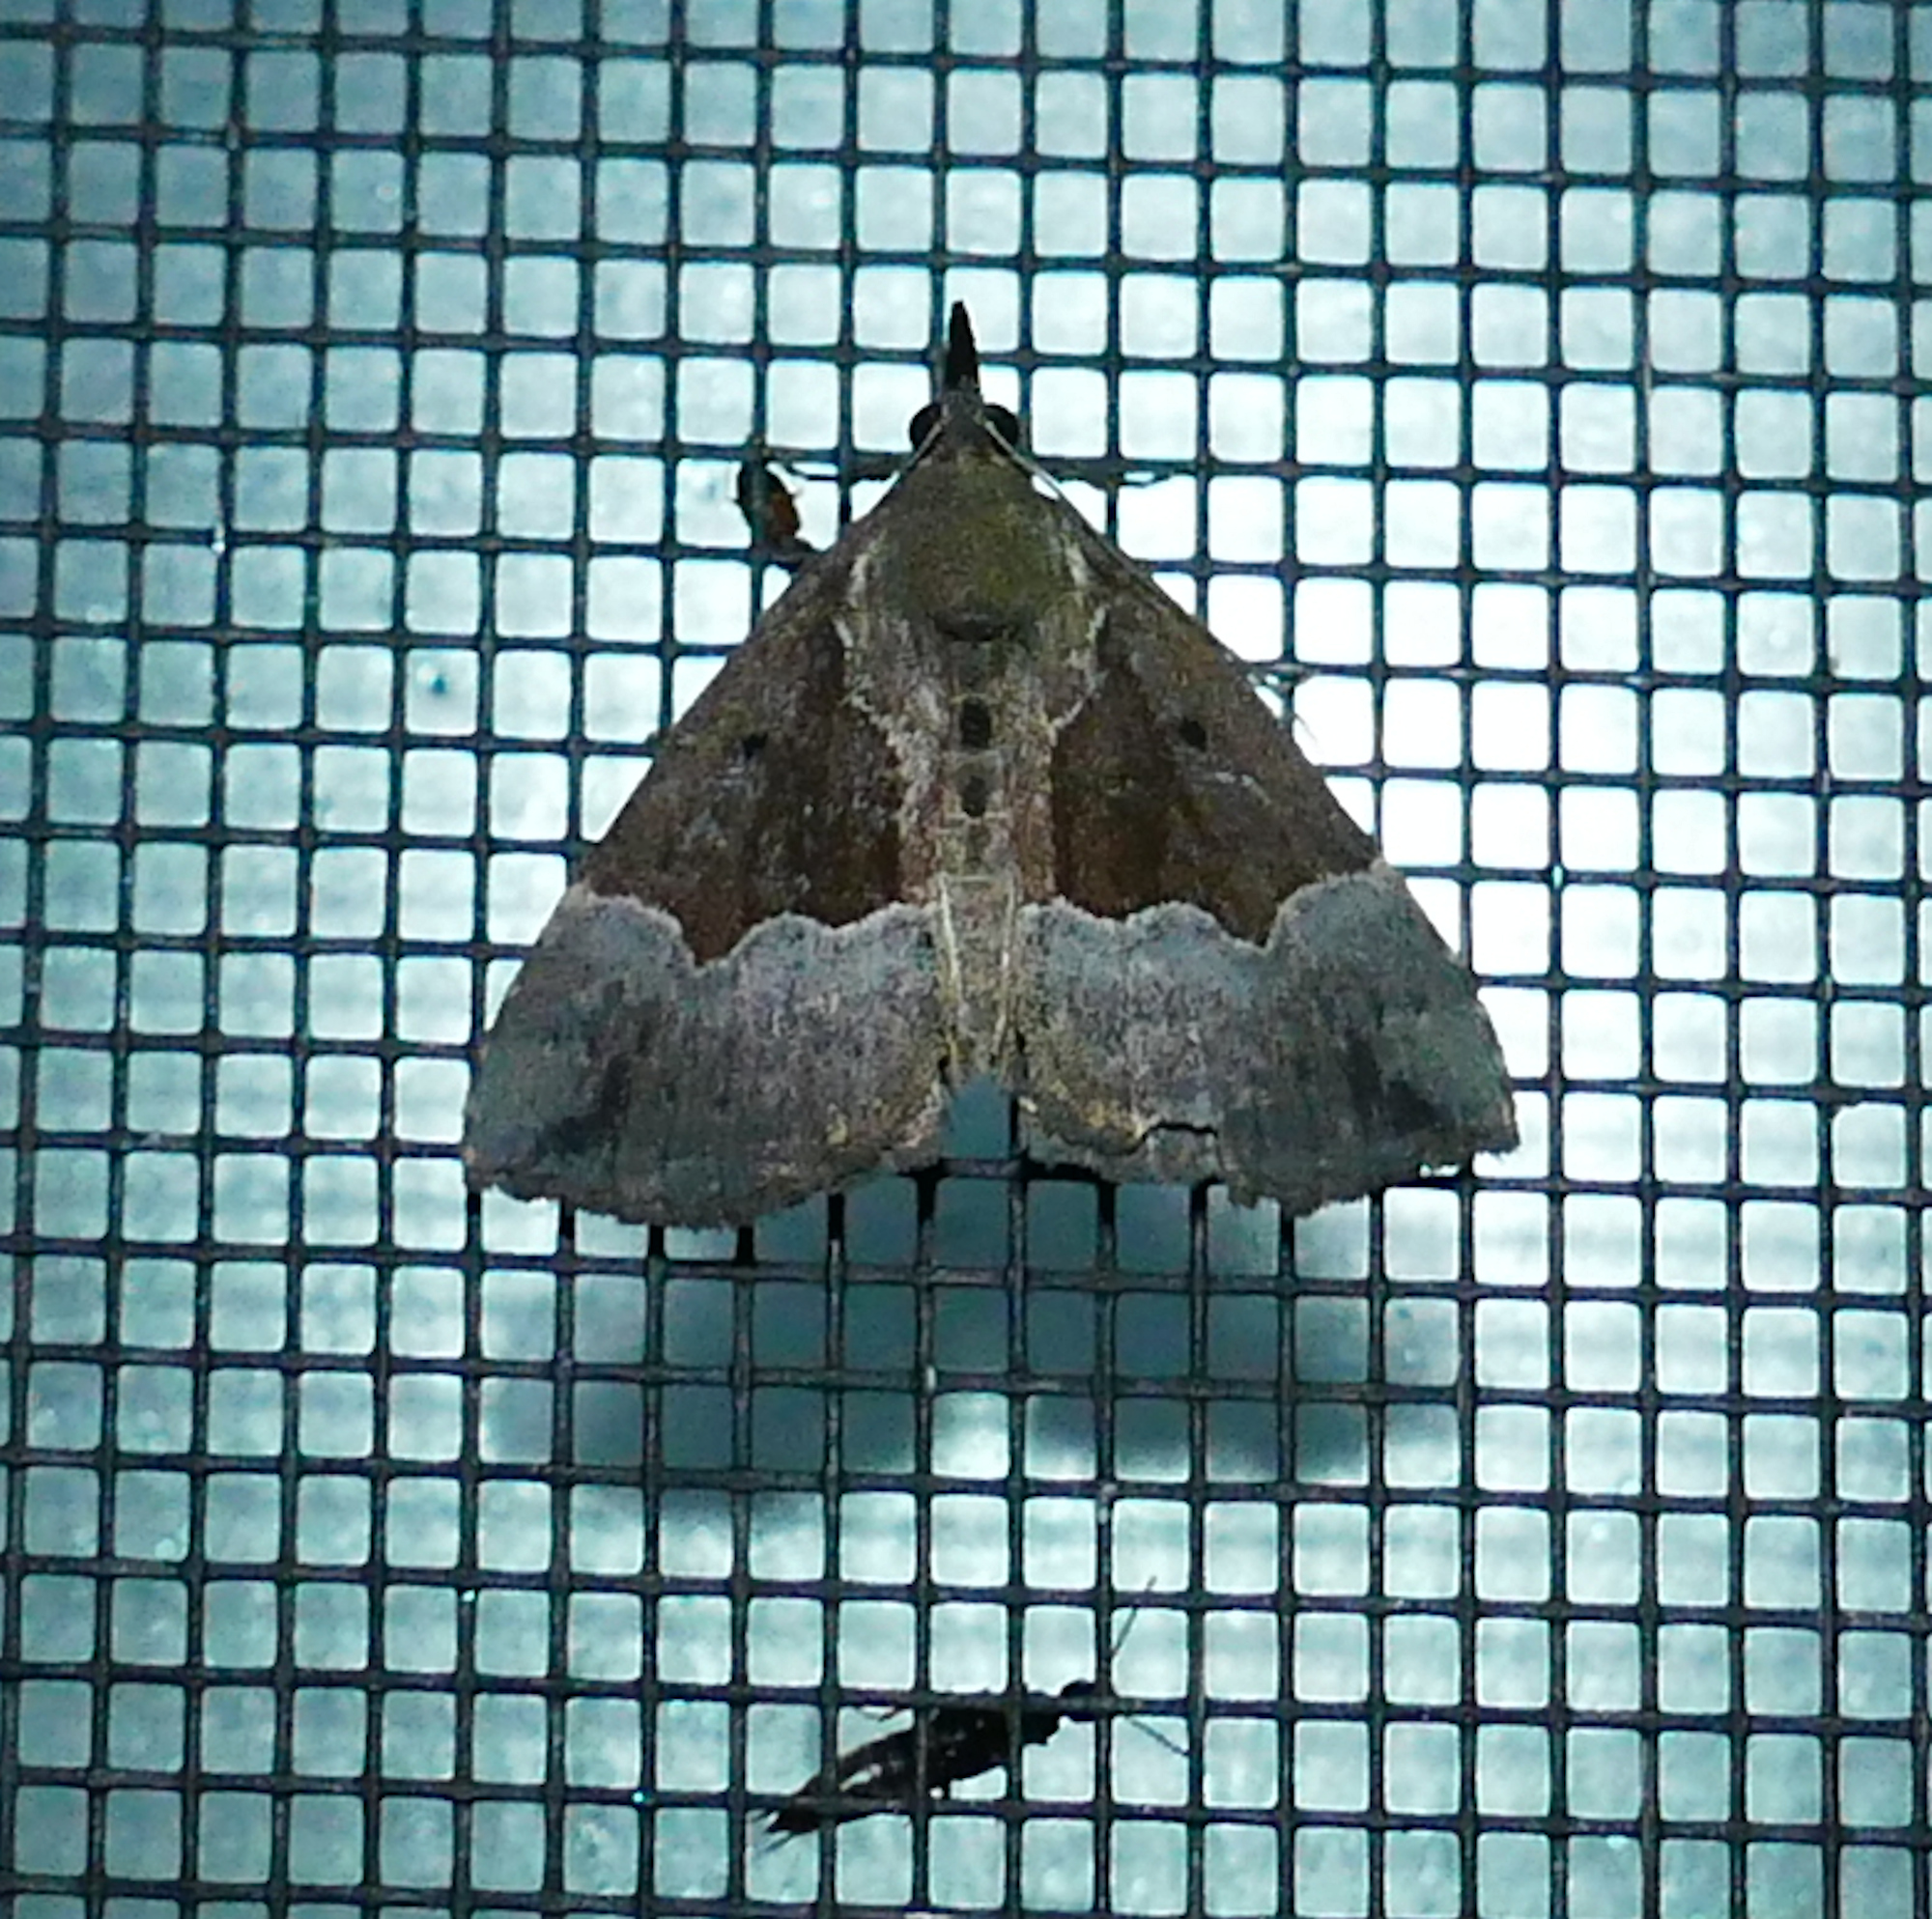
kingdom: Animalia
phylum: Arthropoda
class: Insecta
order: Lepidoptera
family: Erebidae
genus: Hypena
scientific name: Hypena bijugalis
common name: Dimorphic bomolocha moth
